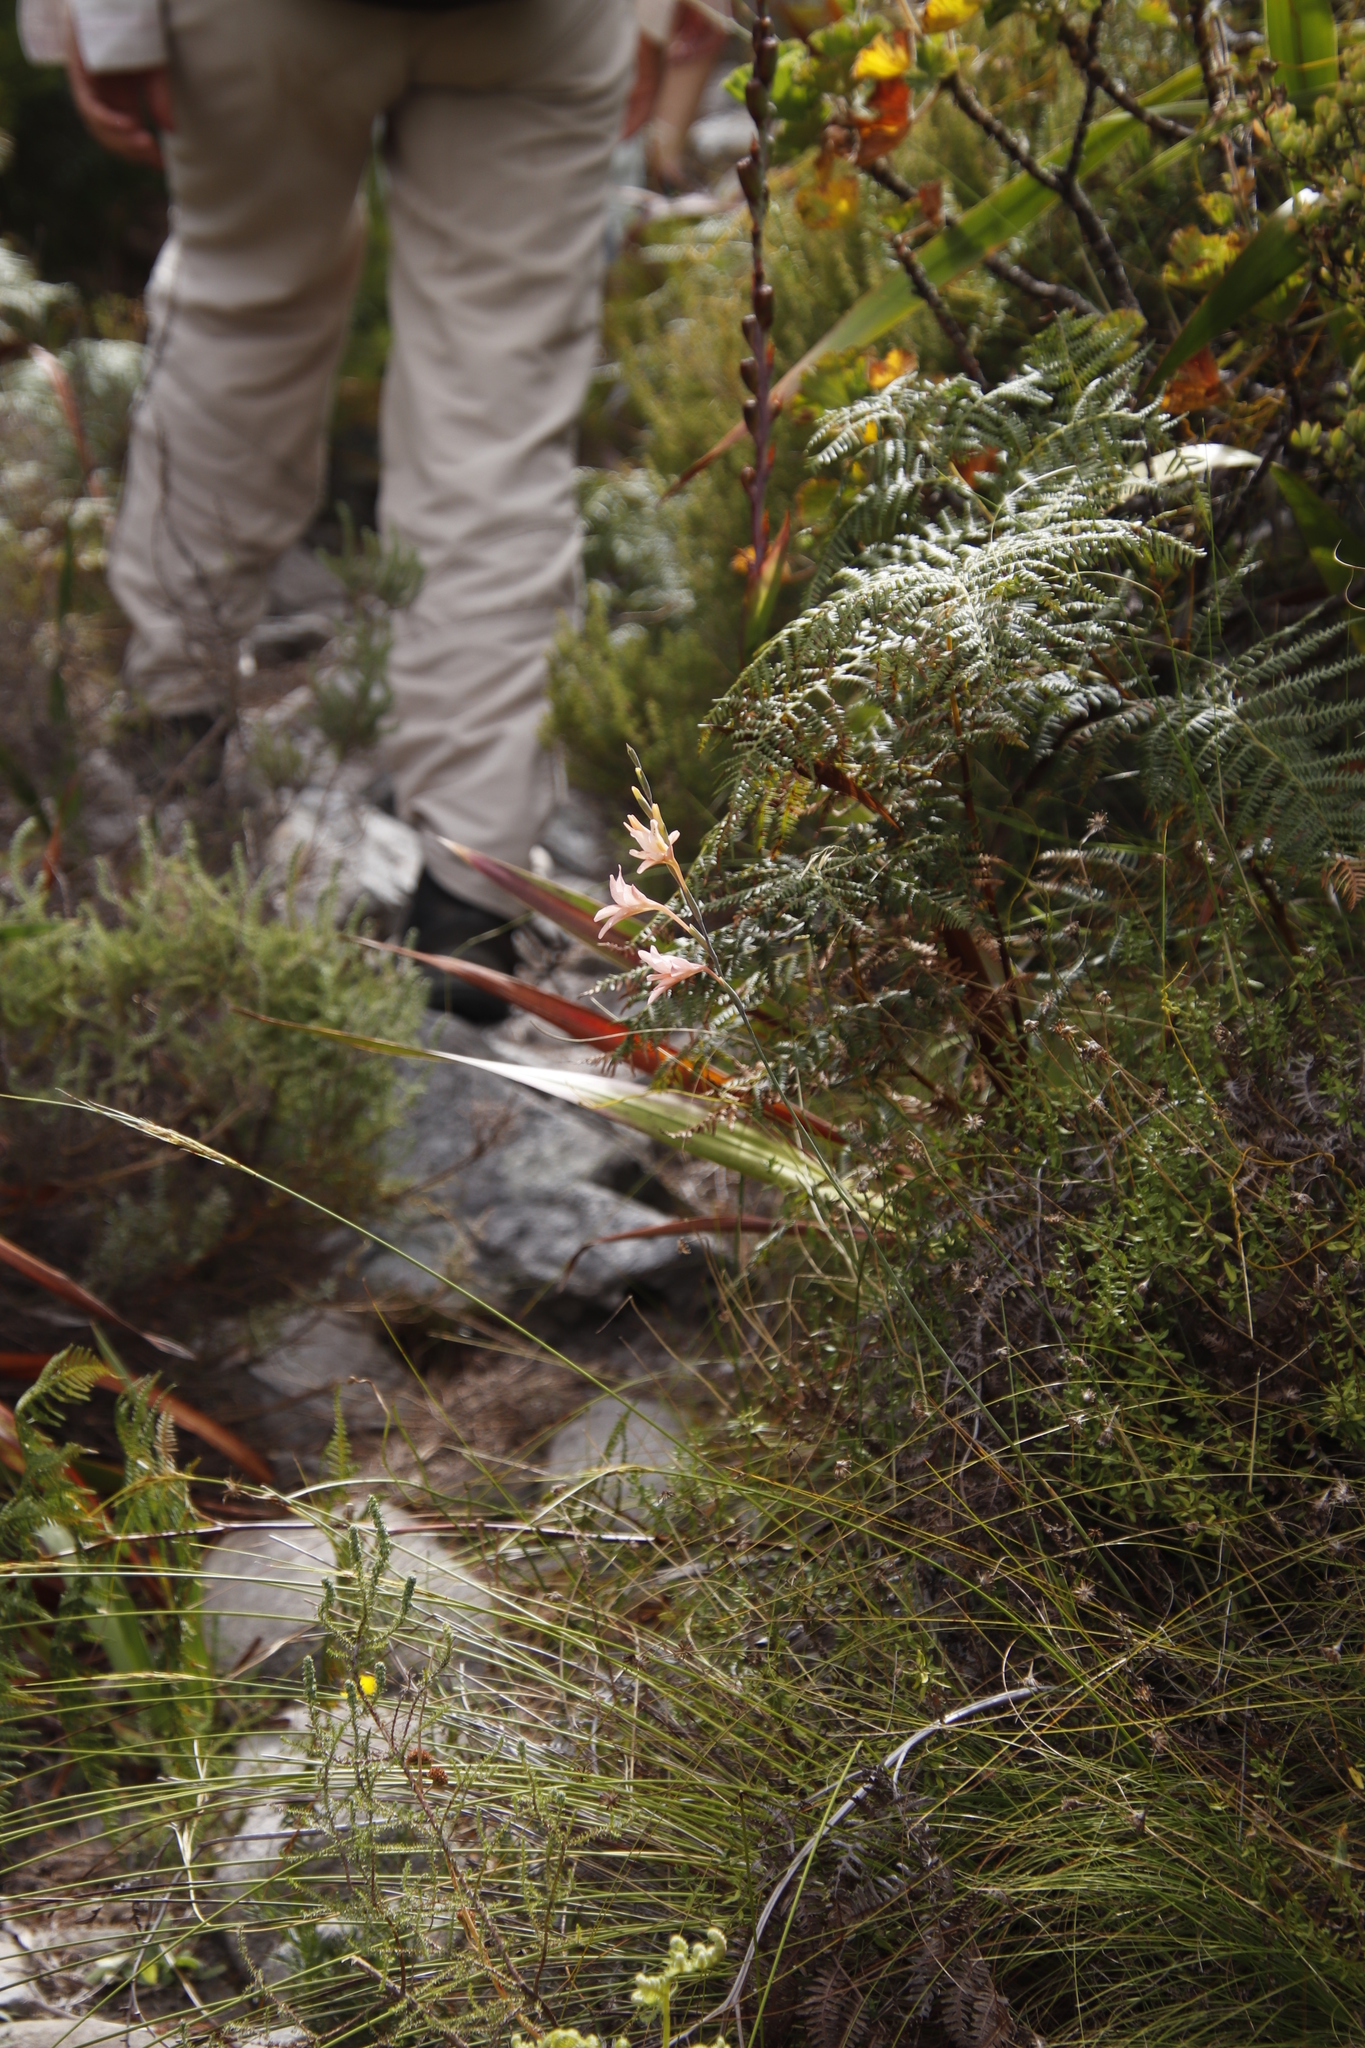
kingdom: Plantae
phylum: Tracheophyta
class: Liliopsida
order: Asparagales
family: Iridaceae
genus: Gladiolus
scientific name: Gladiolus monticola
